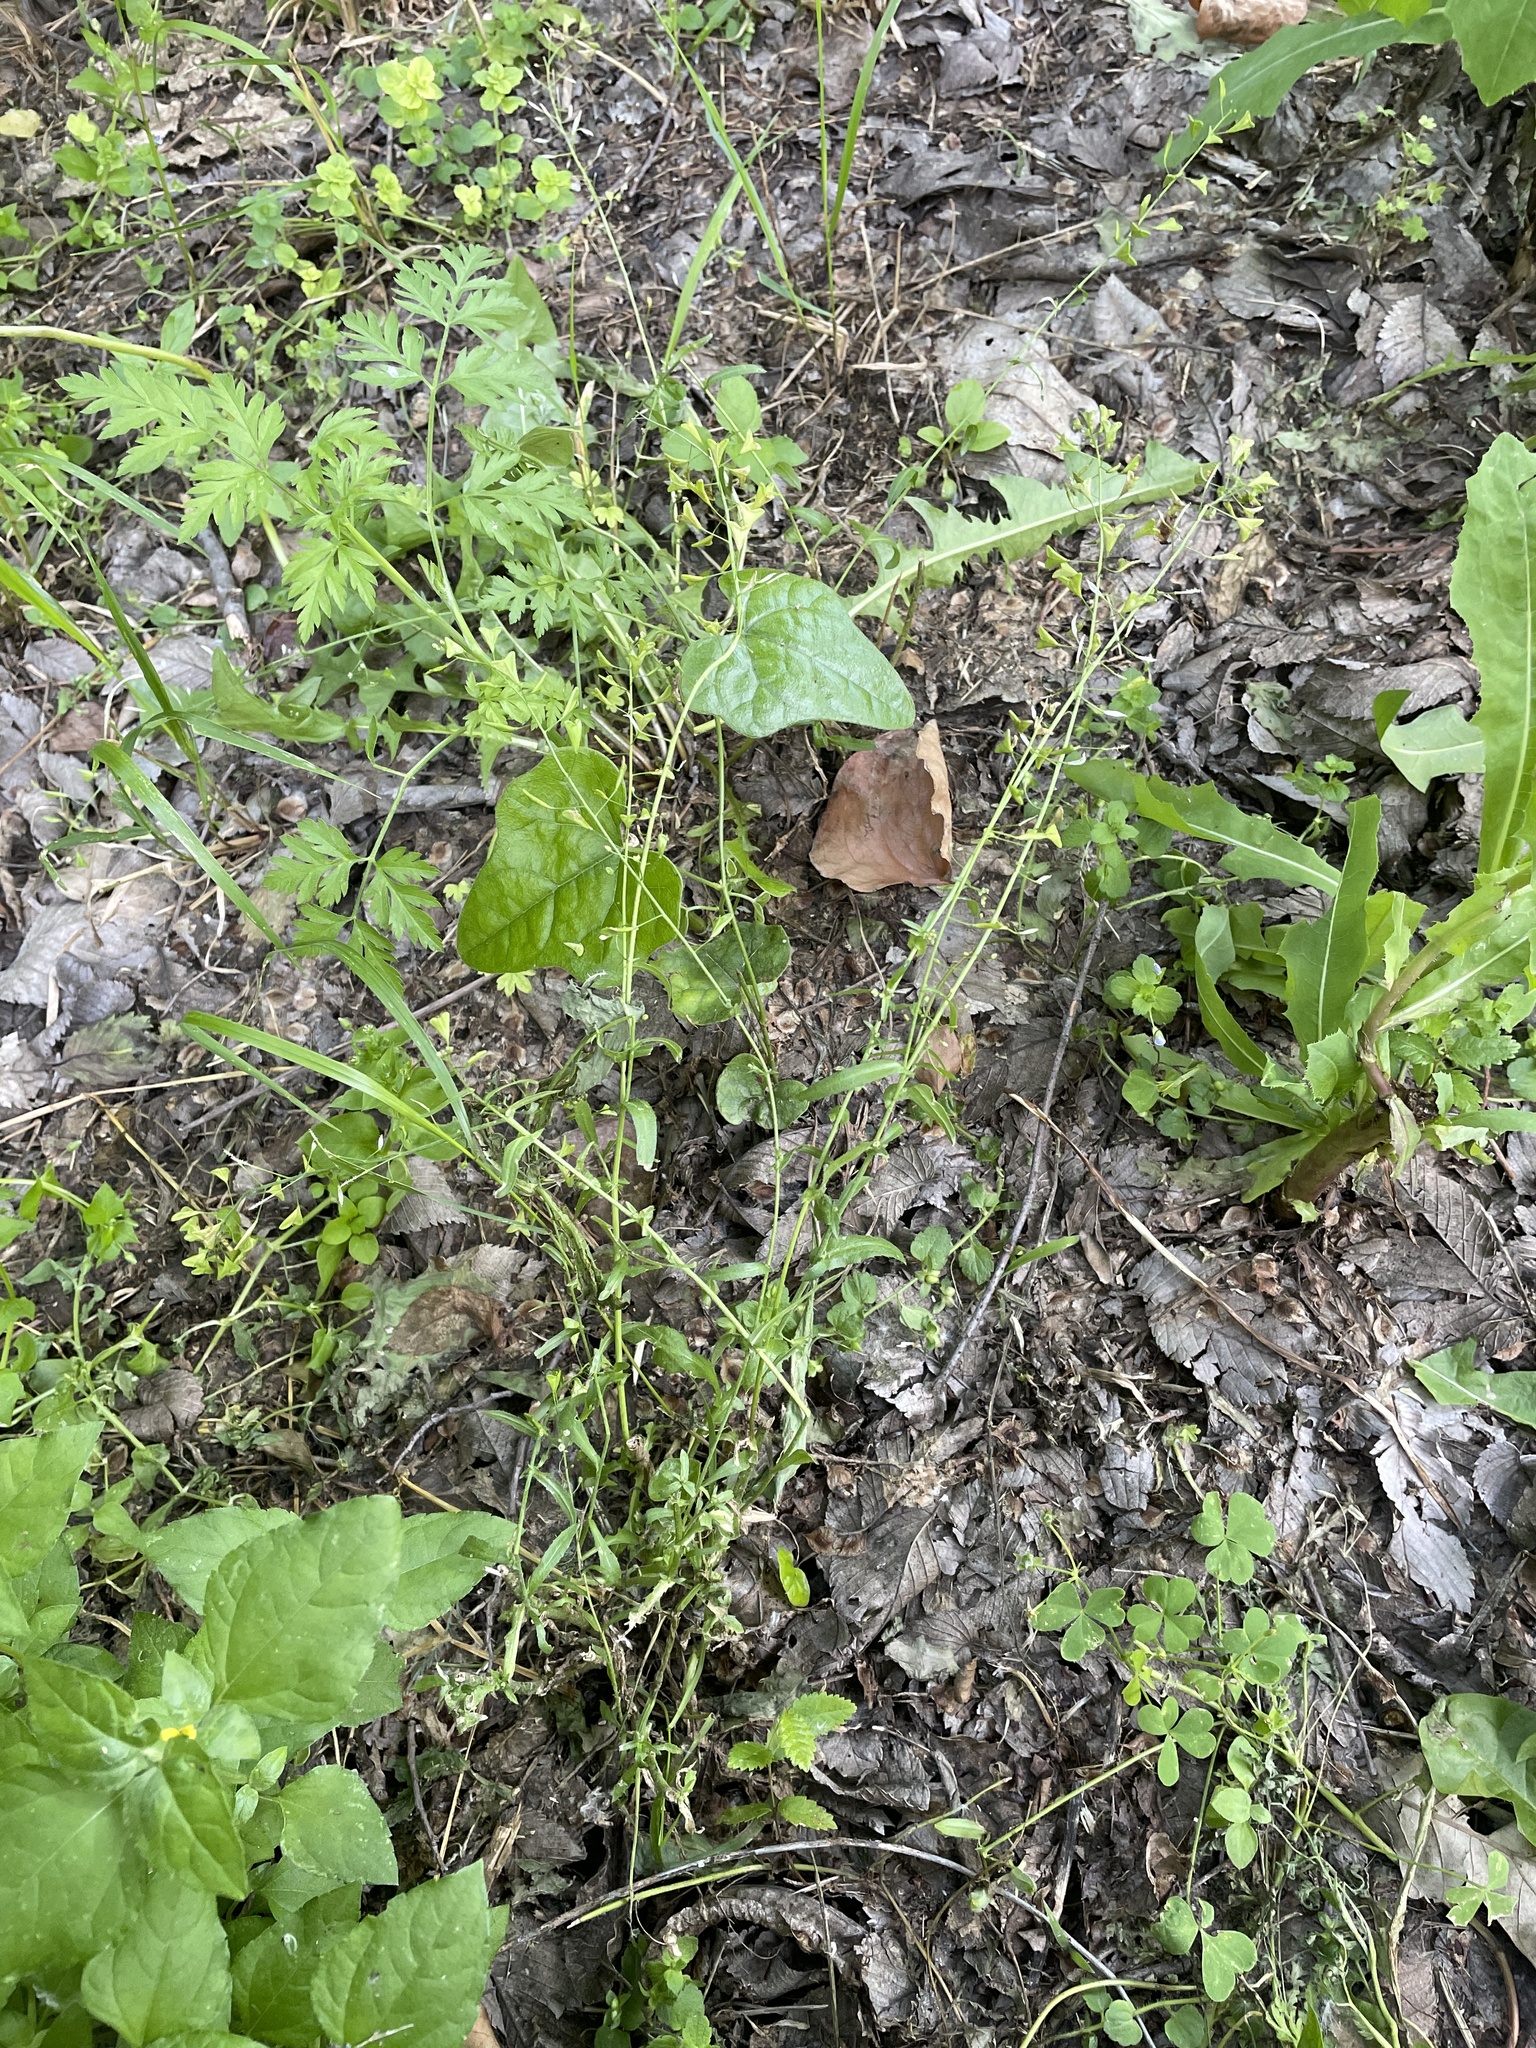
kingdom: Plantae
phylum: Tracheophyta
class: Magnoliopsida
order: Brassicales
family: Brassicaceae
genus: Capsella
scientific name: Capsella bursa-pastoris
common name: Shepherd's purse
